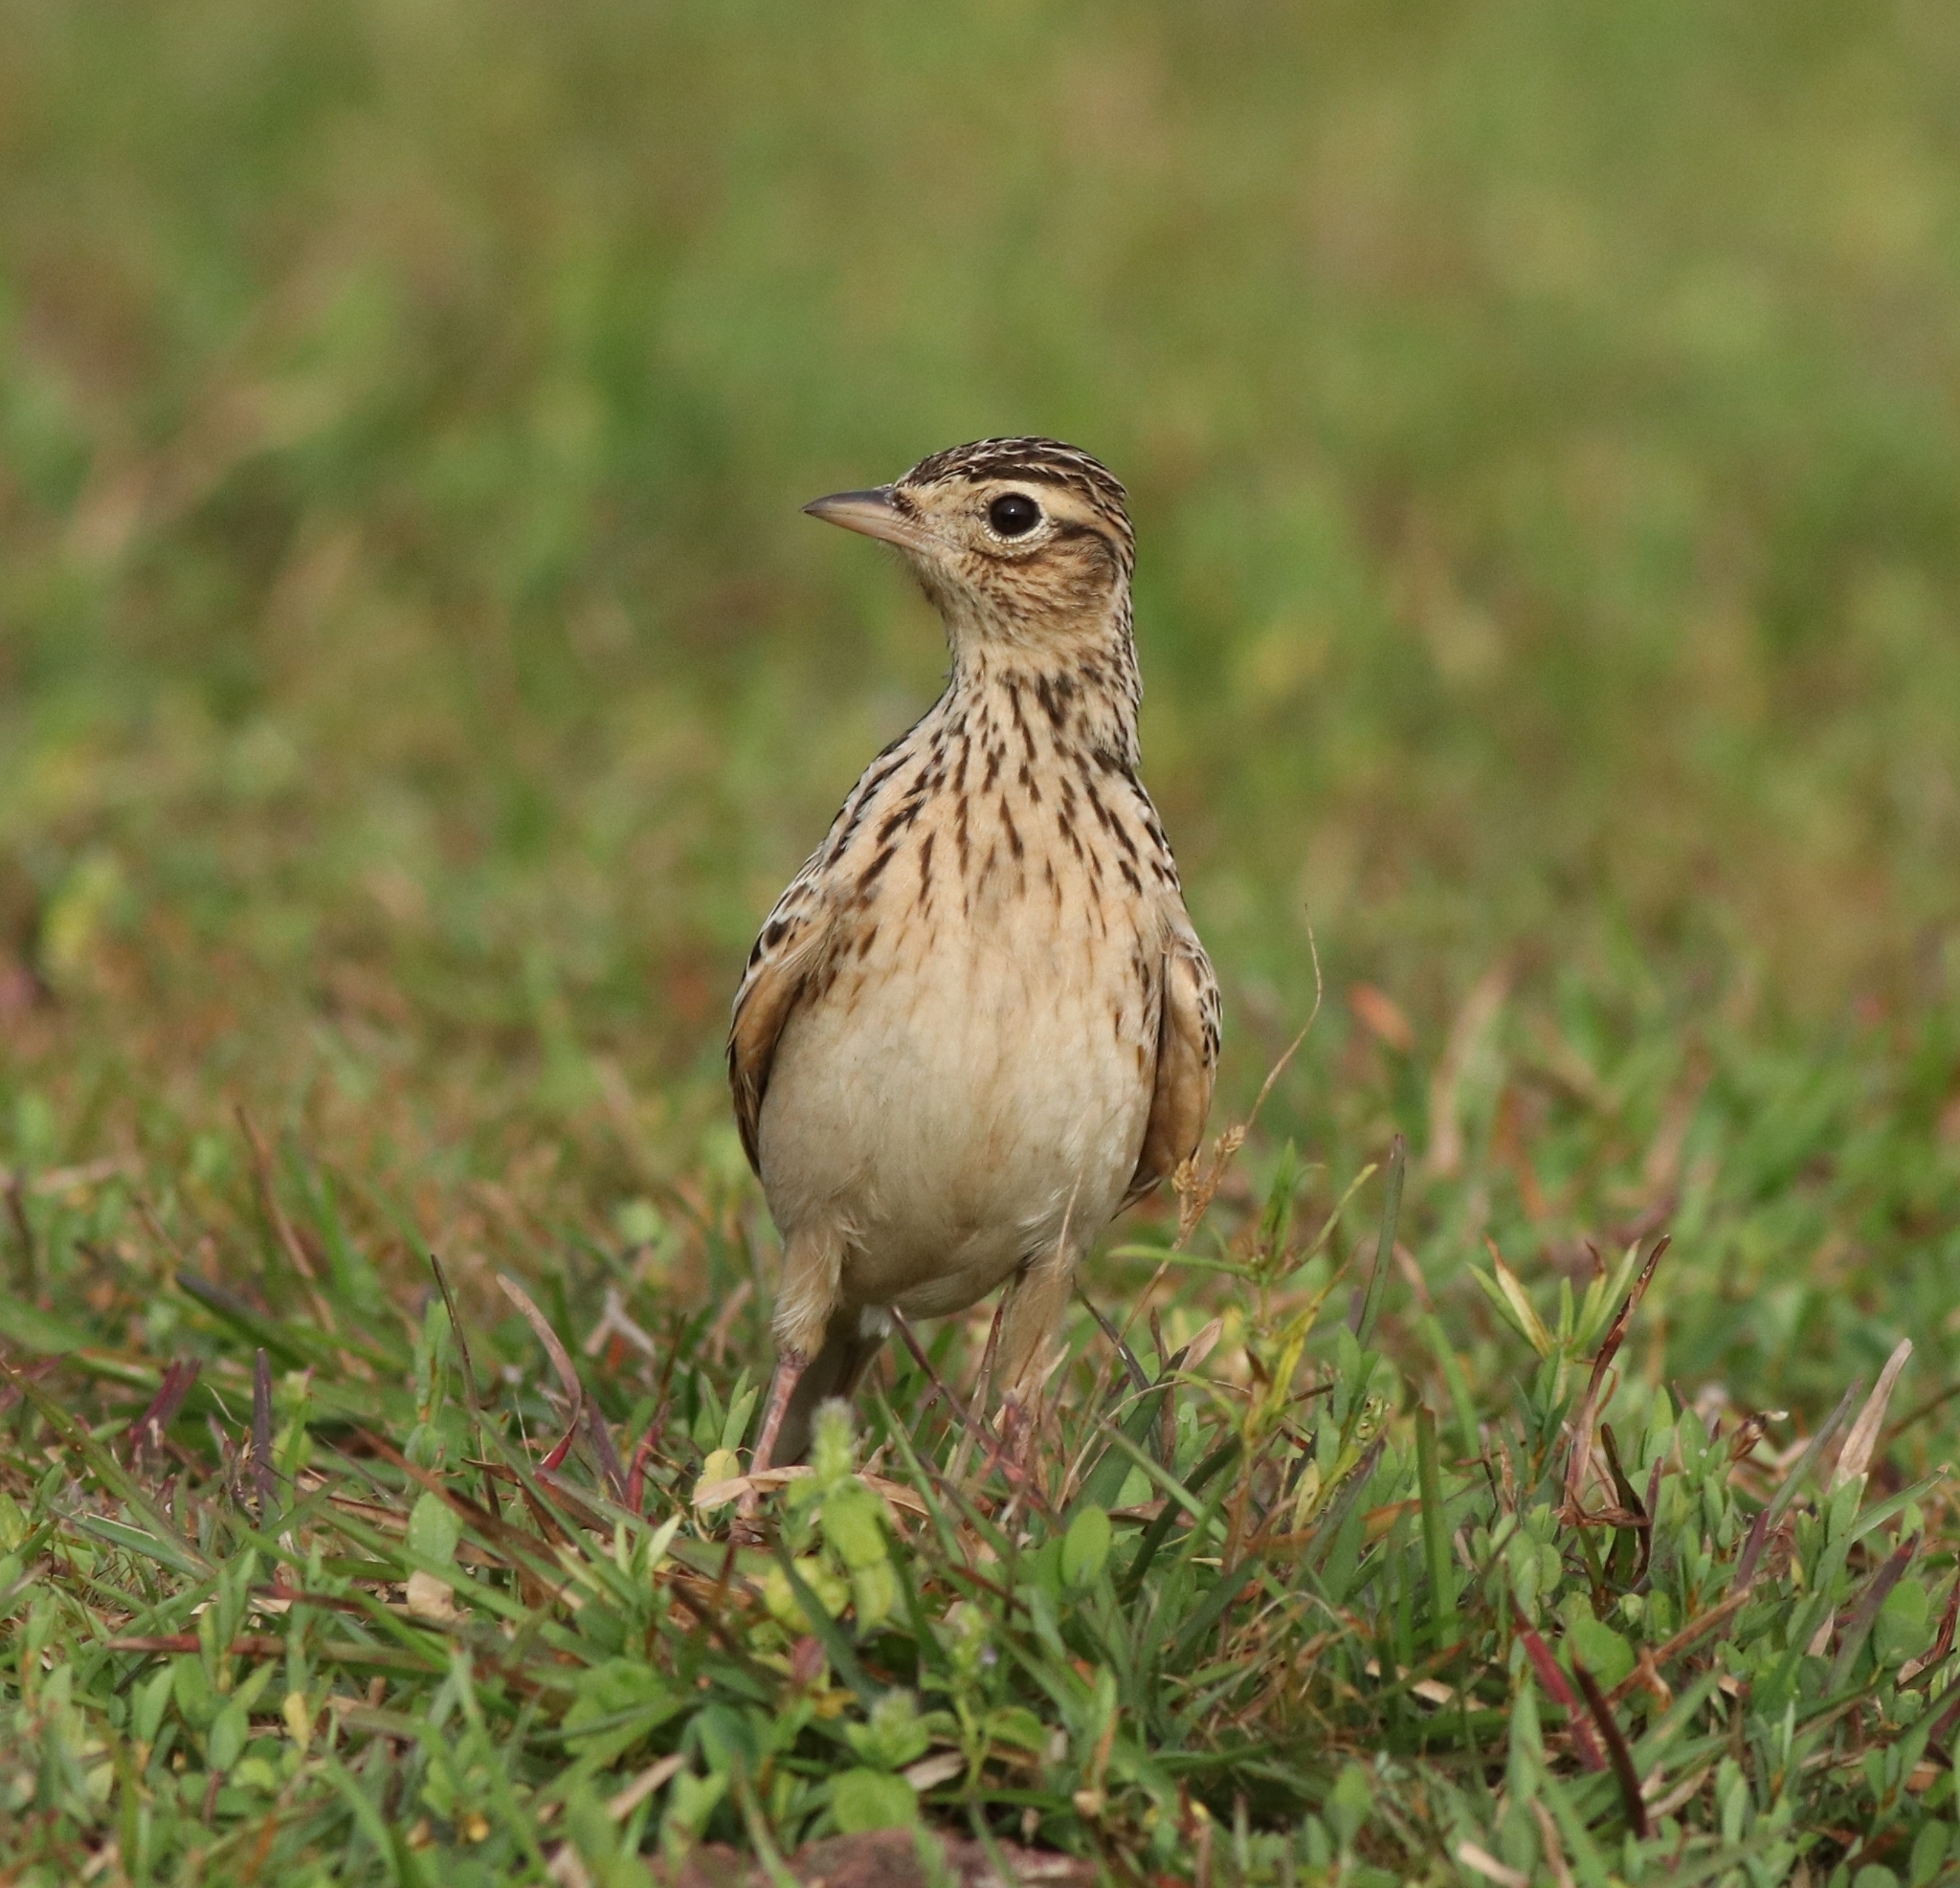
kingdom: Animalia
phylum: Chordata
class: Aves
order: Passeriformes
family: Alaudidae
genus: Alauda
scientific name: Alauda gulgula
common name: Oriental skylark
